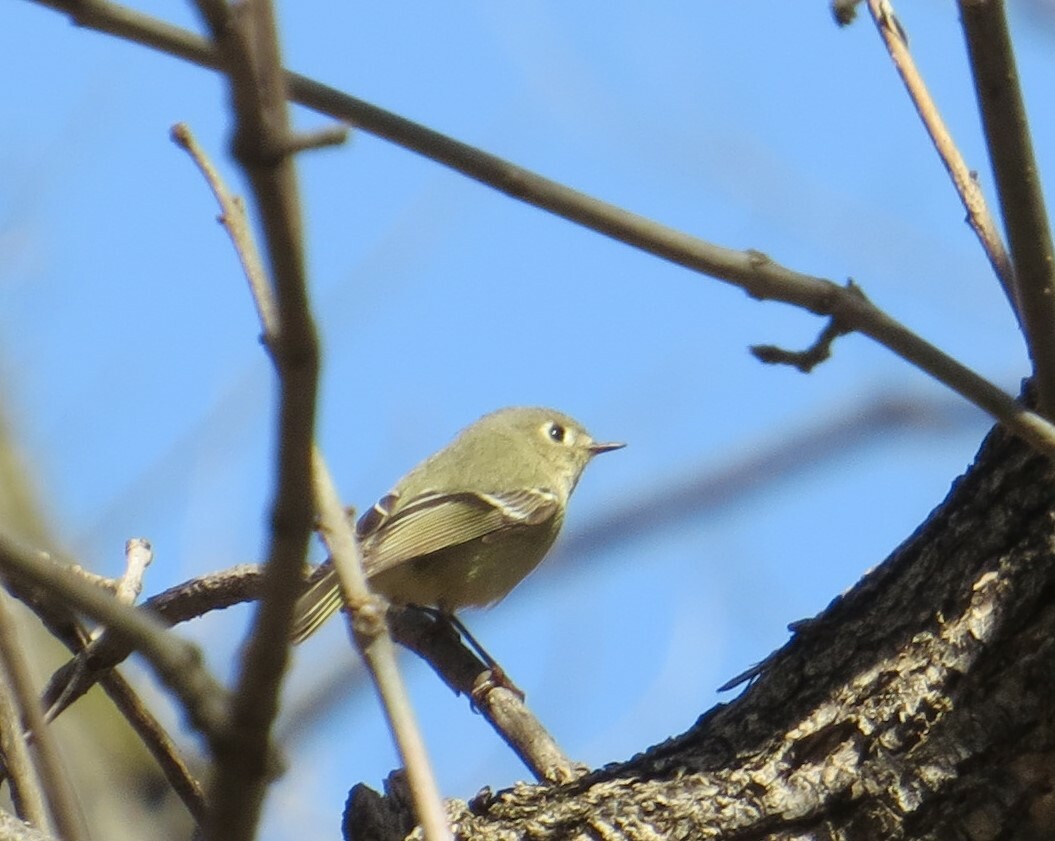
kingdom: Animalia
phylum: Chordata
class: Aves
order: Passeriformes
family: Regulidae
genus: Regulus
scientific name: Regulus calendula
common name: Ruby-crowned kinglet
